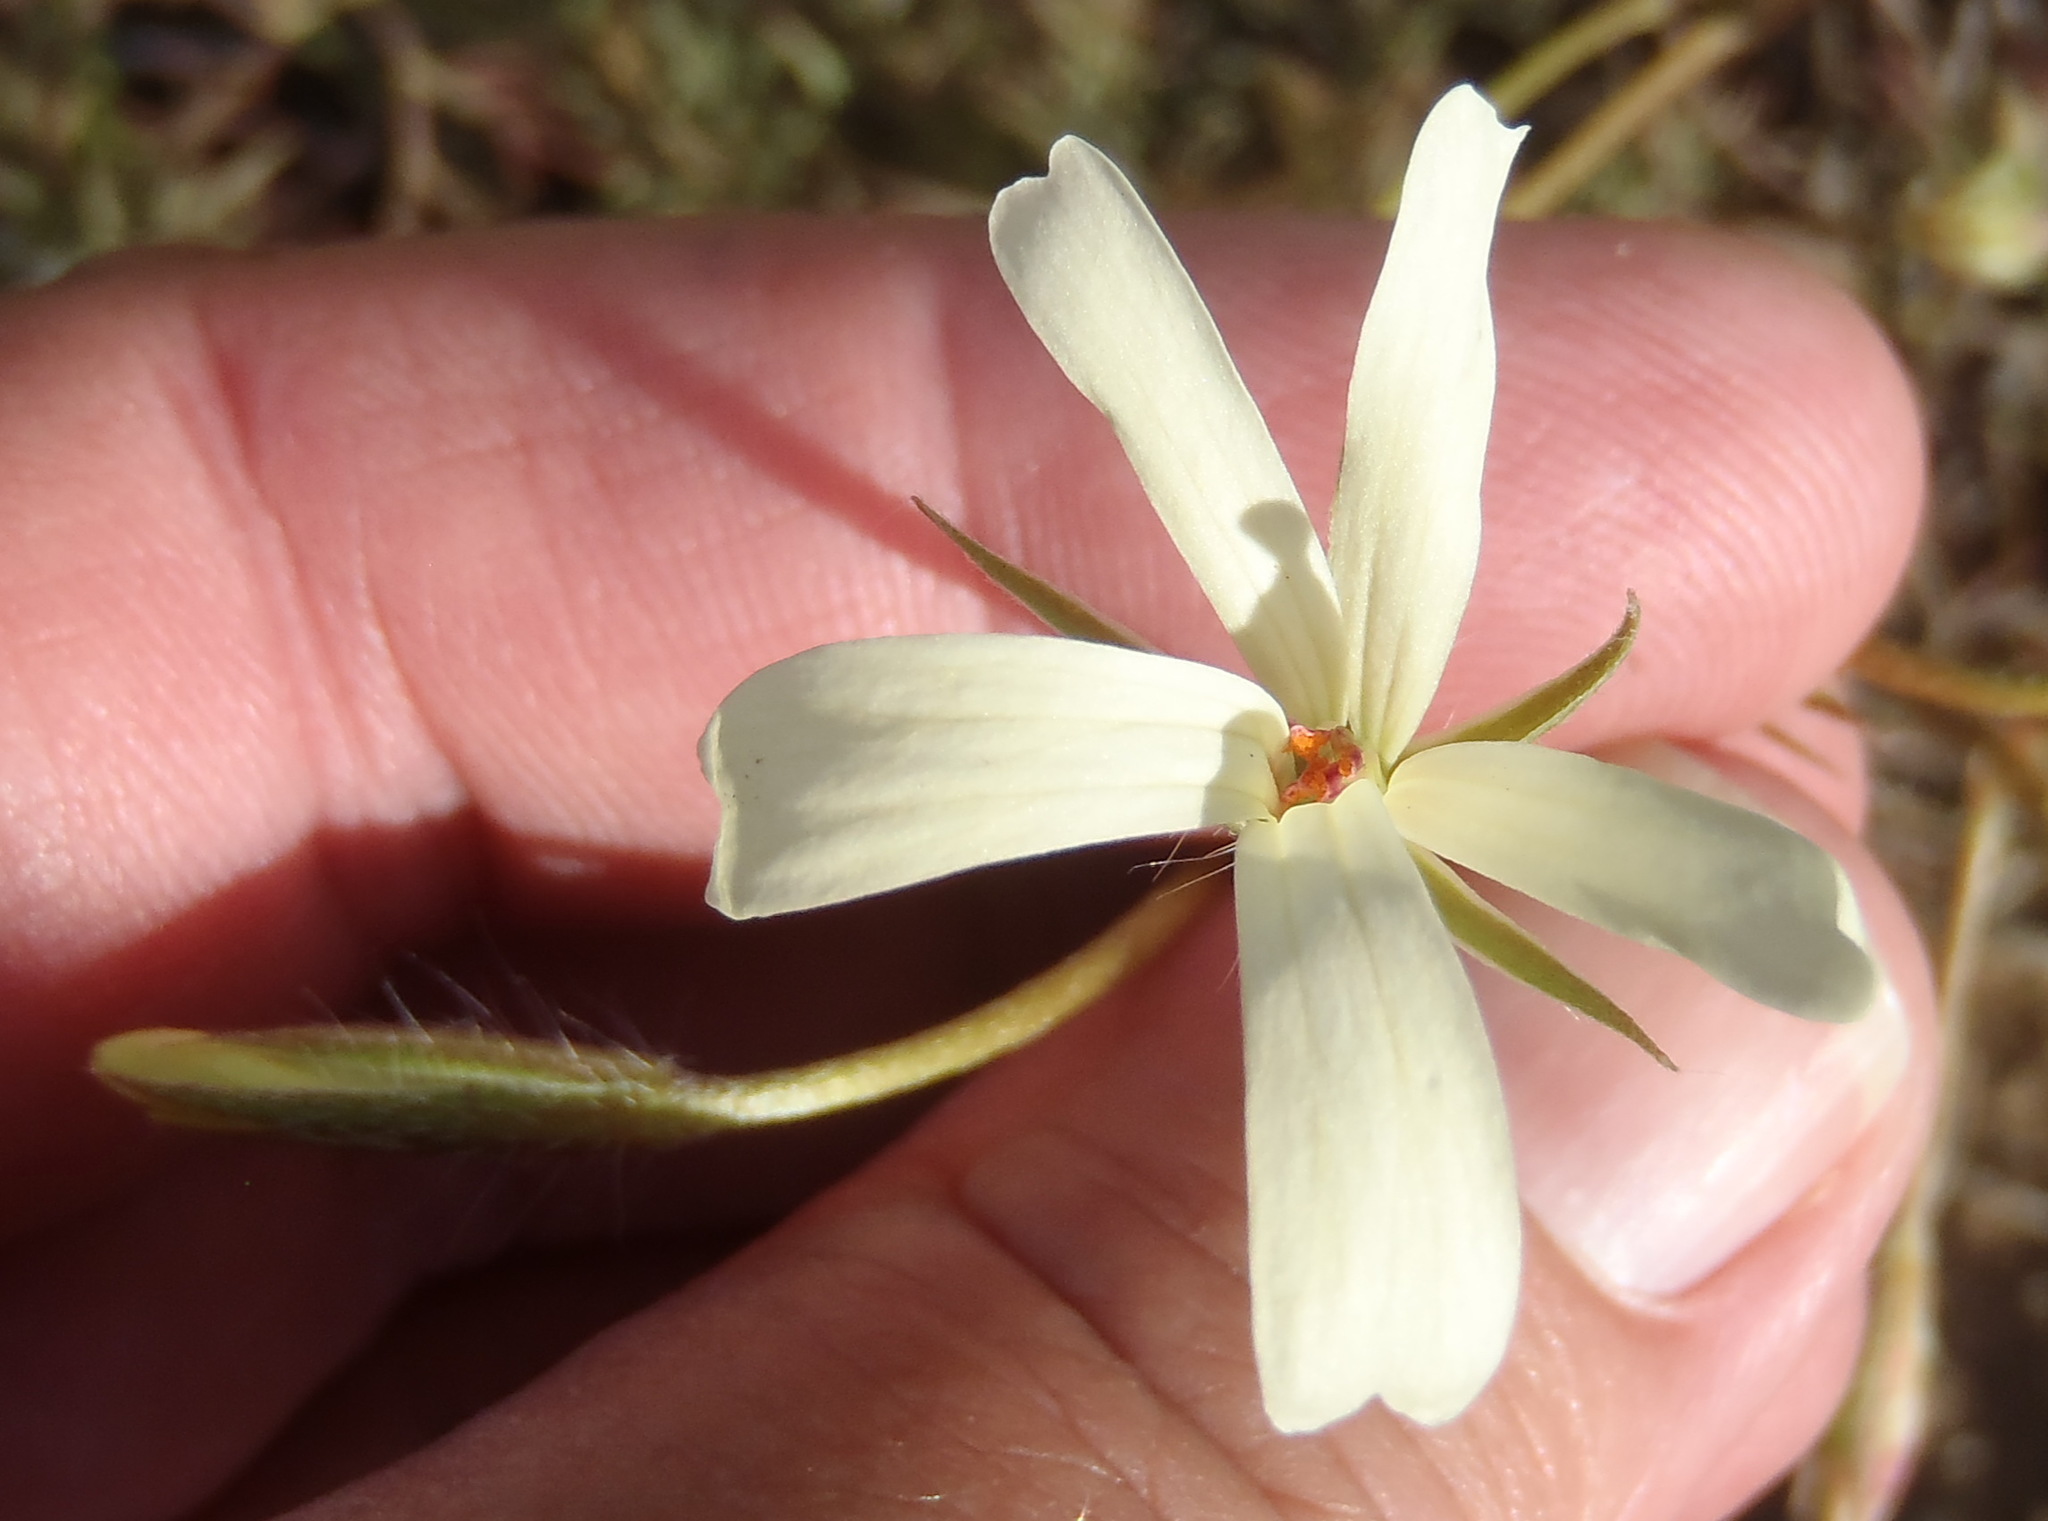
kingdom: Plantae
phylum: Tracheophyta
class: Magnoliopsida
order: Geraniales
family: Geraniaceae
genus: Pelargonium
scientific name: Pelargonium aridum
